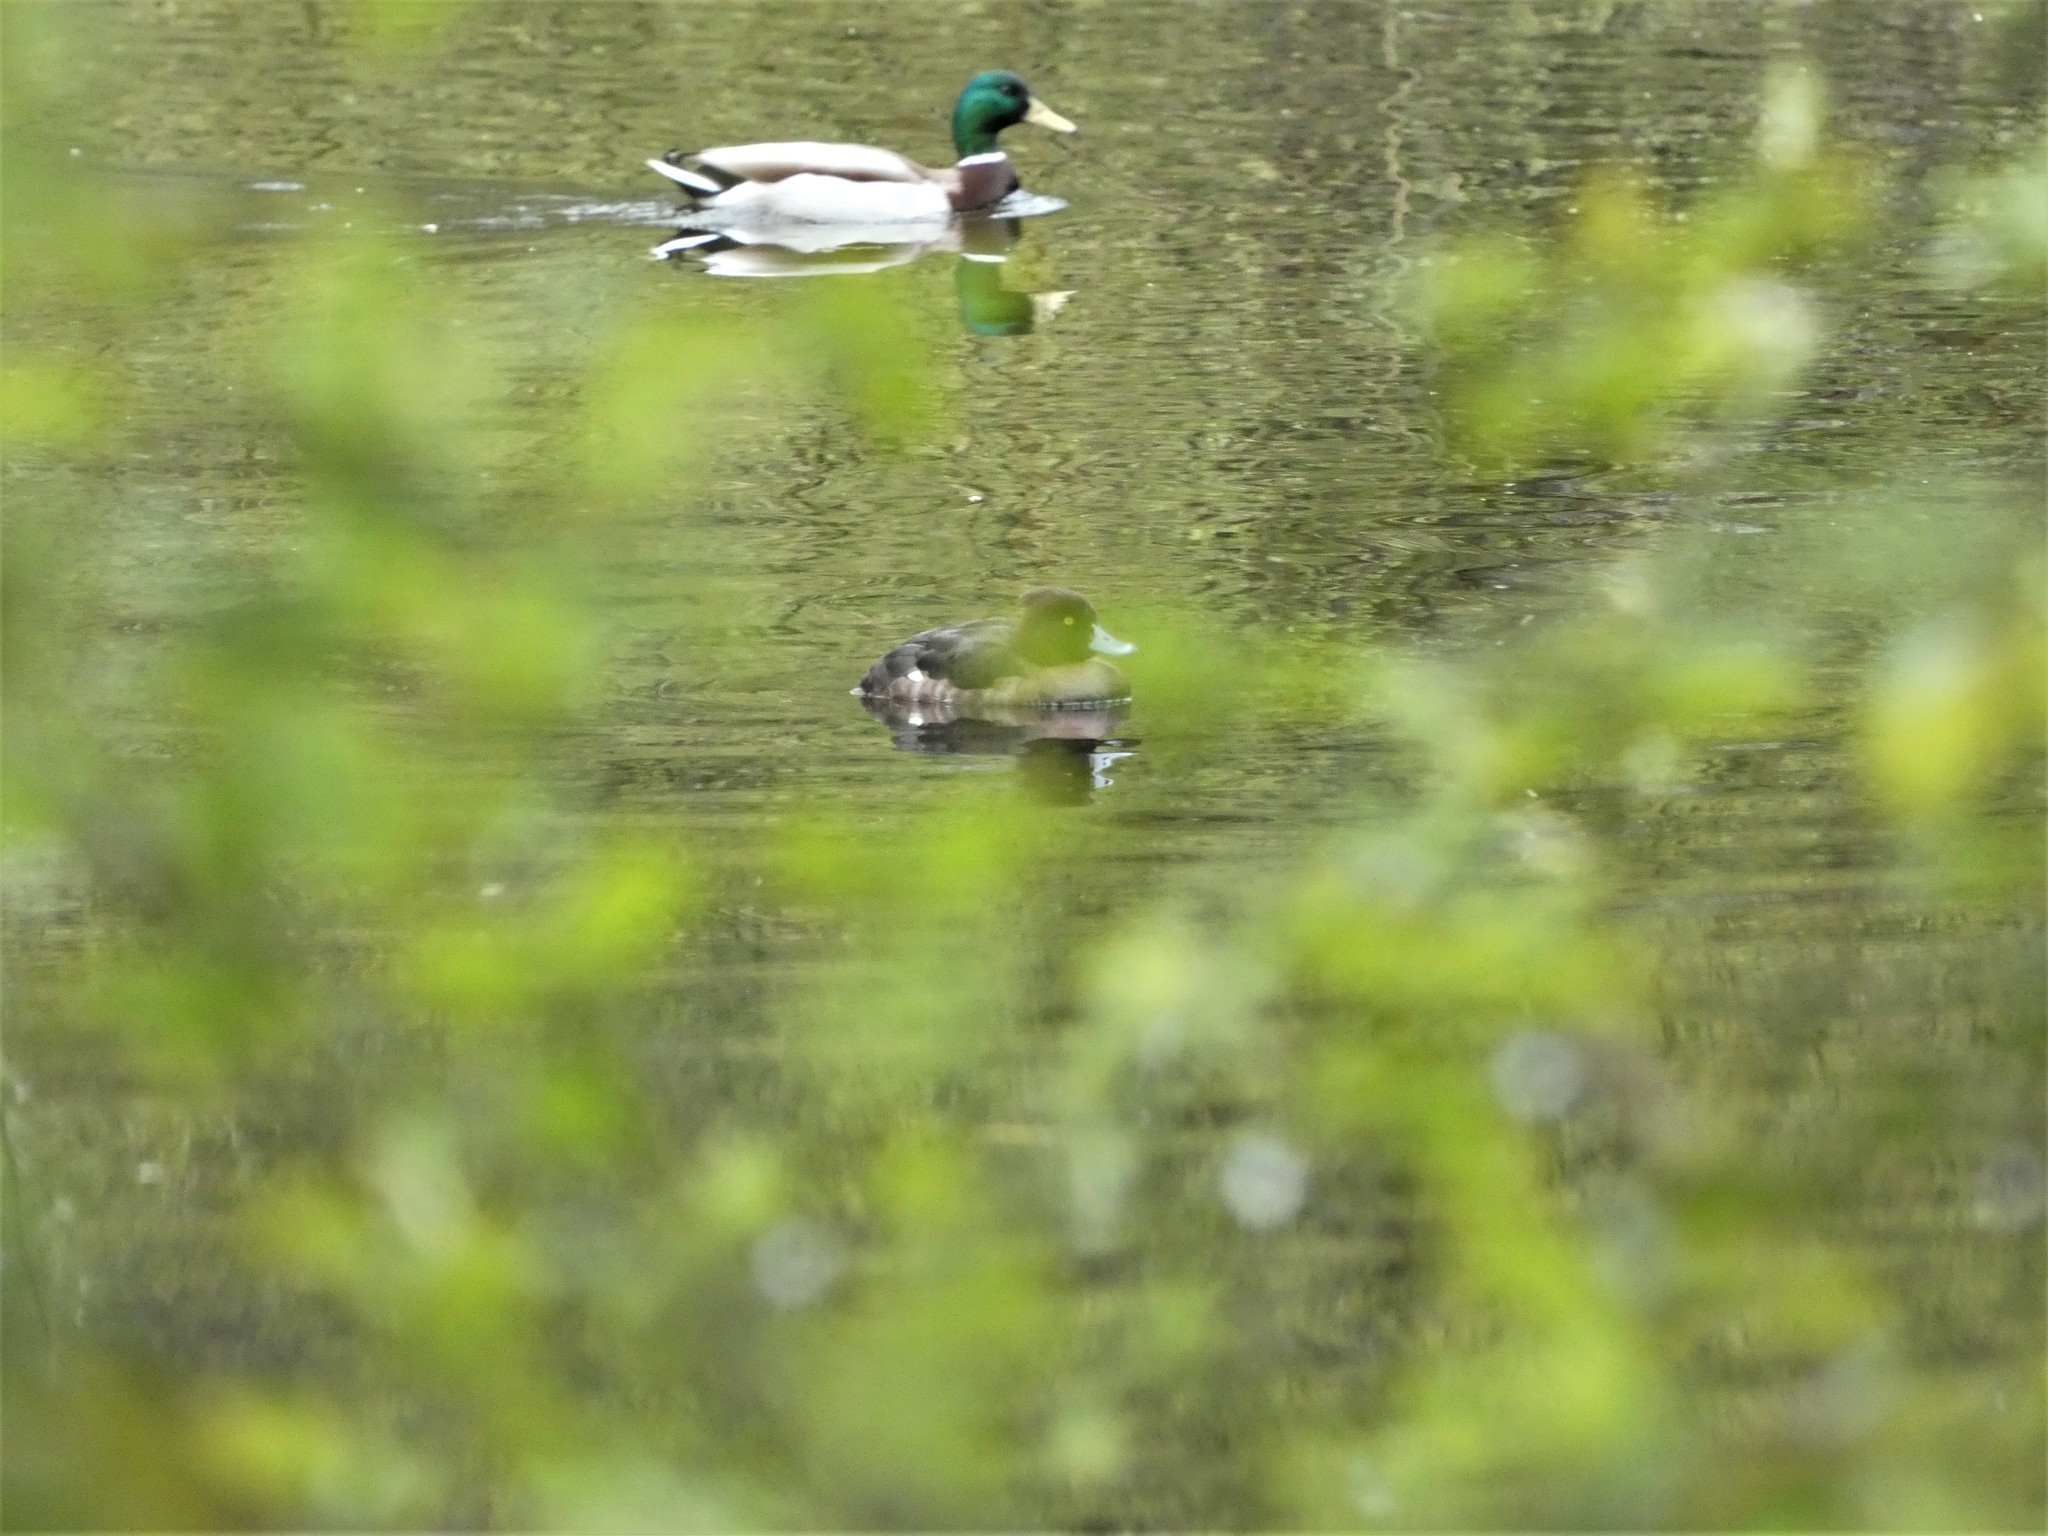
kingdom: Animalia
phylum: Chordata
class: Aves
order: Anseriformes
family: Anatidae
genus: Aythya
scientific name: Aythya fuligula
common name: Tufted duck
